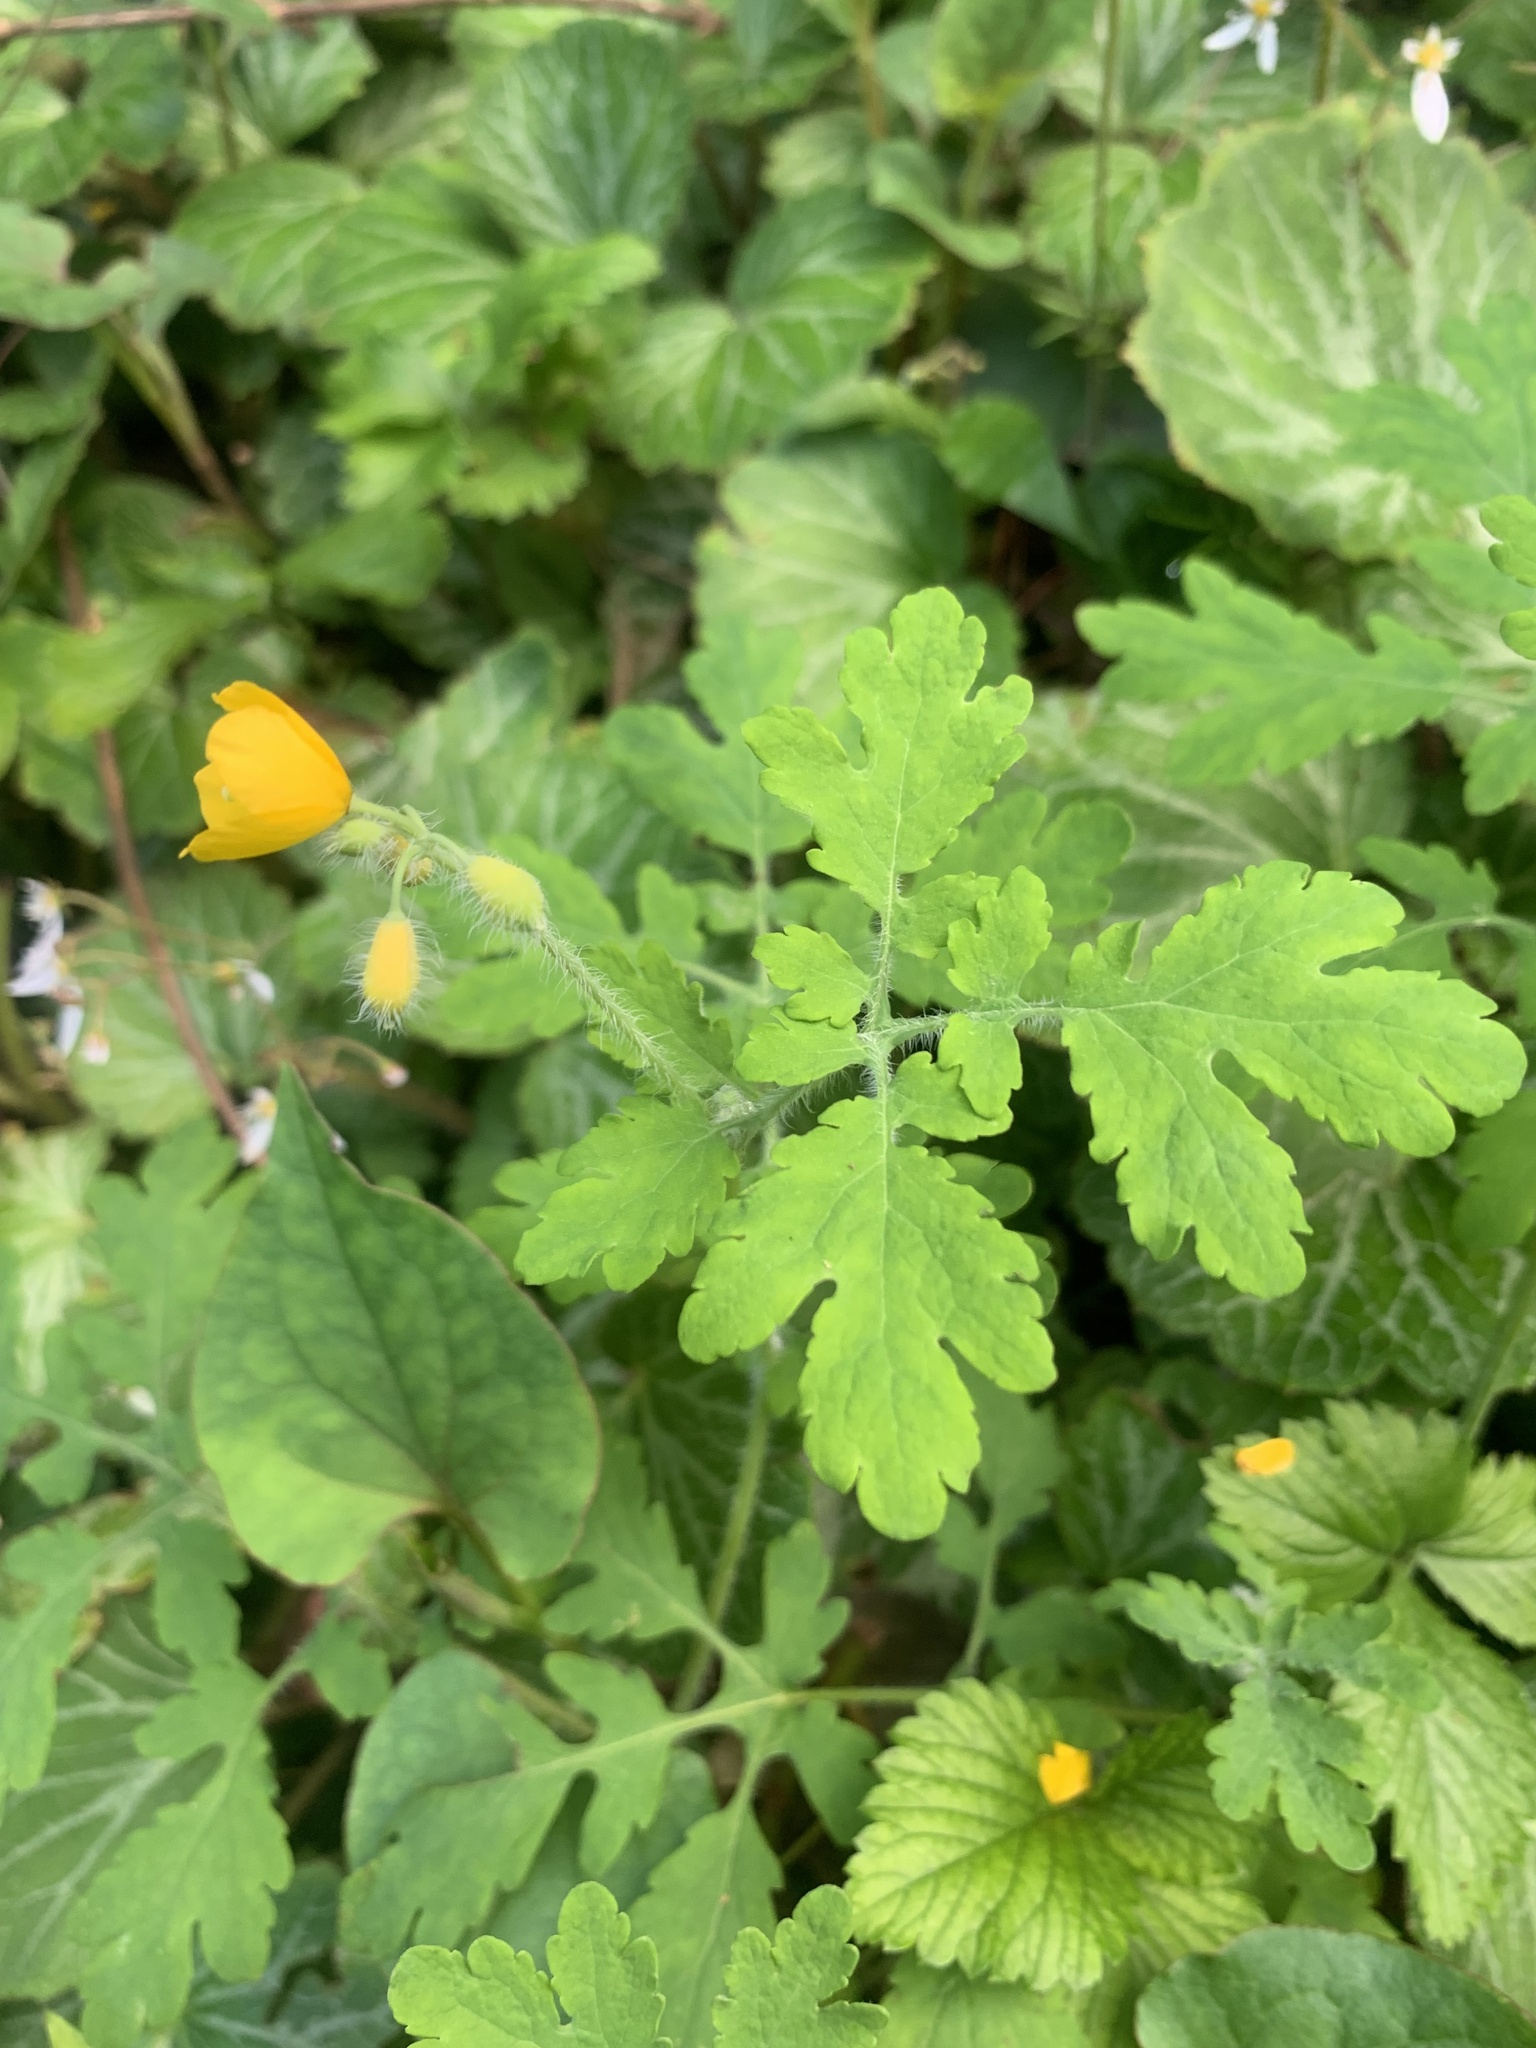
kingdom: Plantae
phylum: Tracheophyta
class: Magnoliopsida
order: Ranunculales
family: Papaveraceae
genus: Chelidonium
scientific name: Chelidonium majus
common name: Greater celandine
